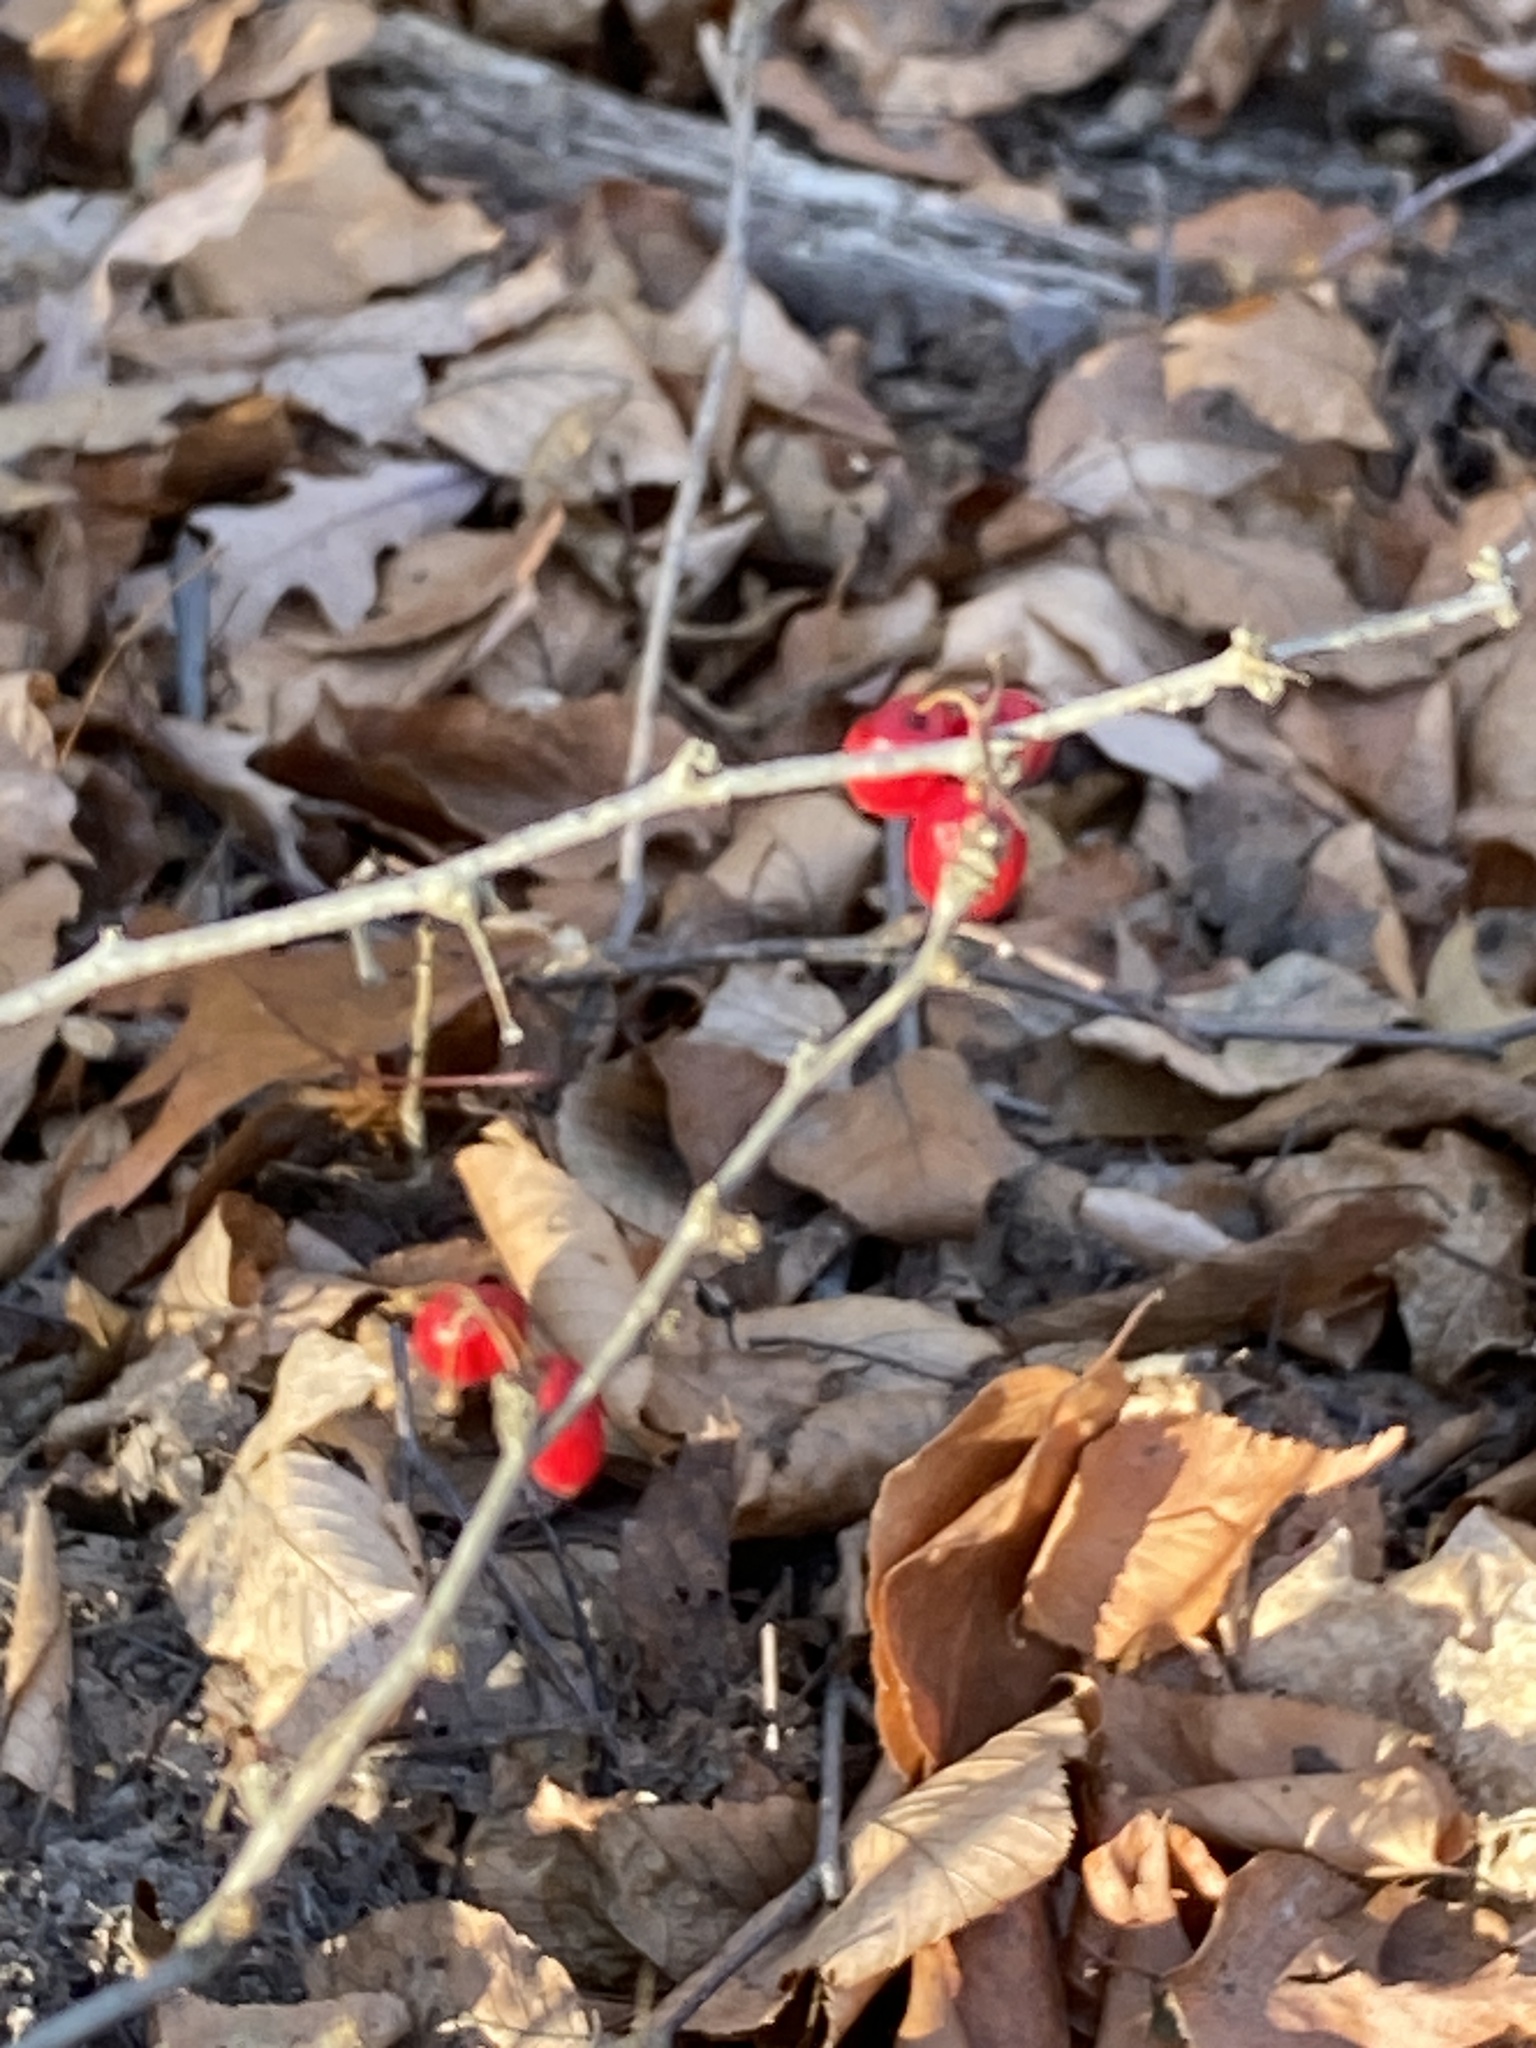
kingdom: Plantae
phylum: Tracheophyta
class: Magnoliopsida
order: Ranunculales
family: Berberidaceae
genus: Berberis
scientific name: Berberis thunbergii
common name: Japanese barberry
